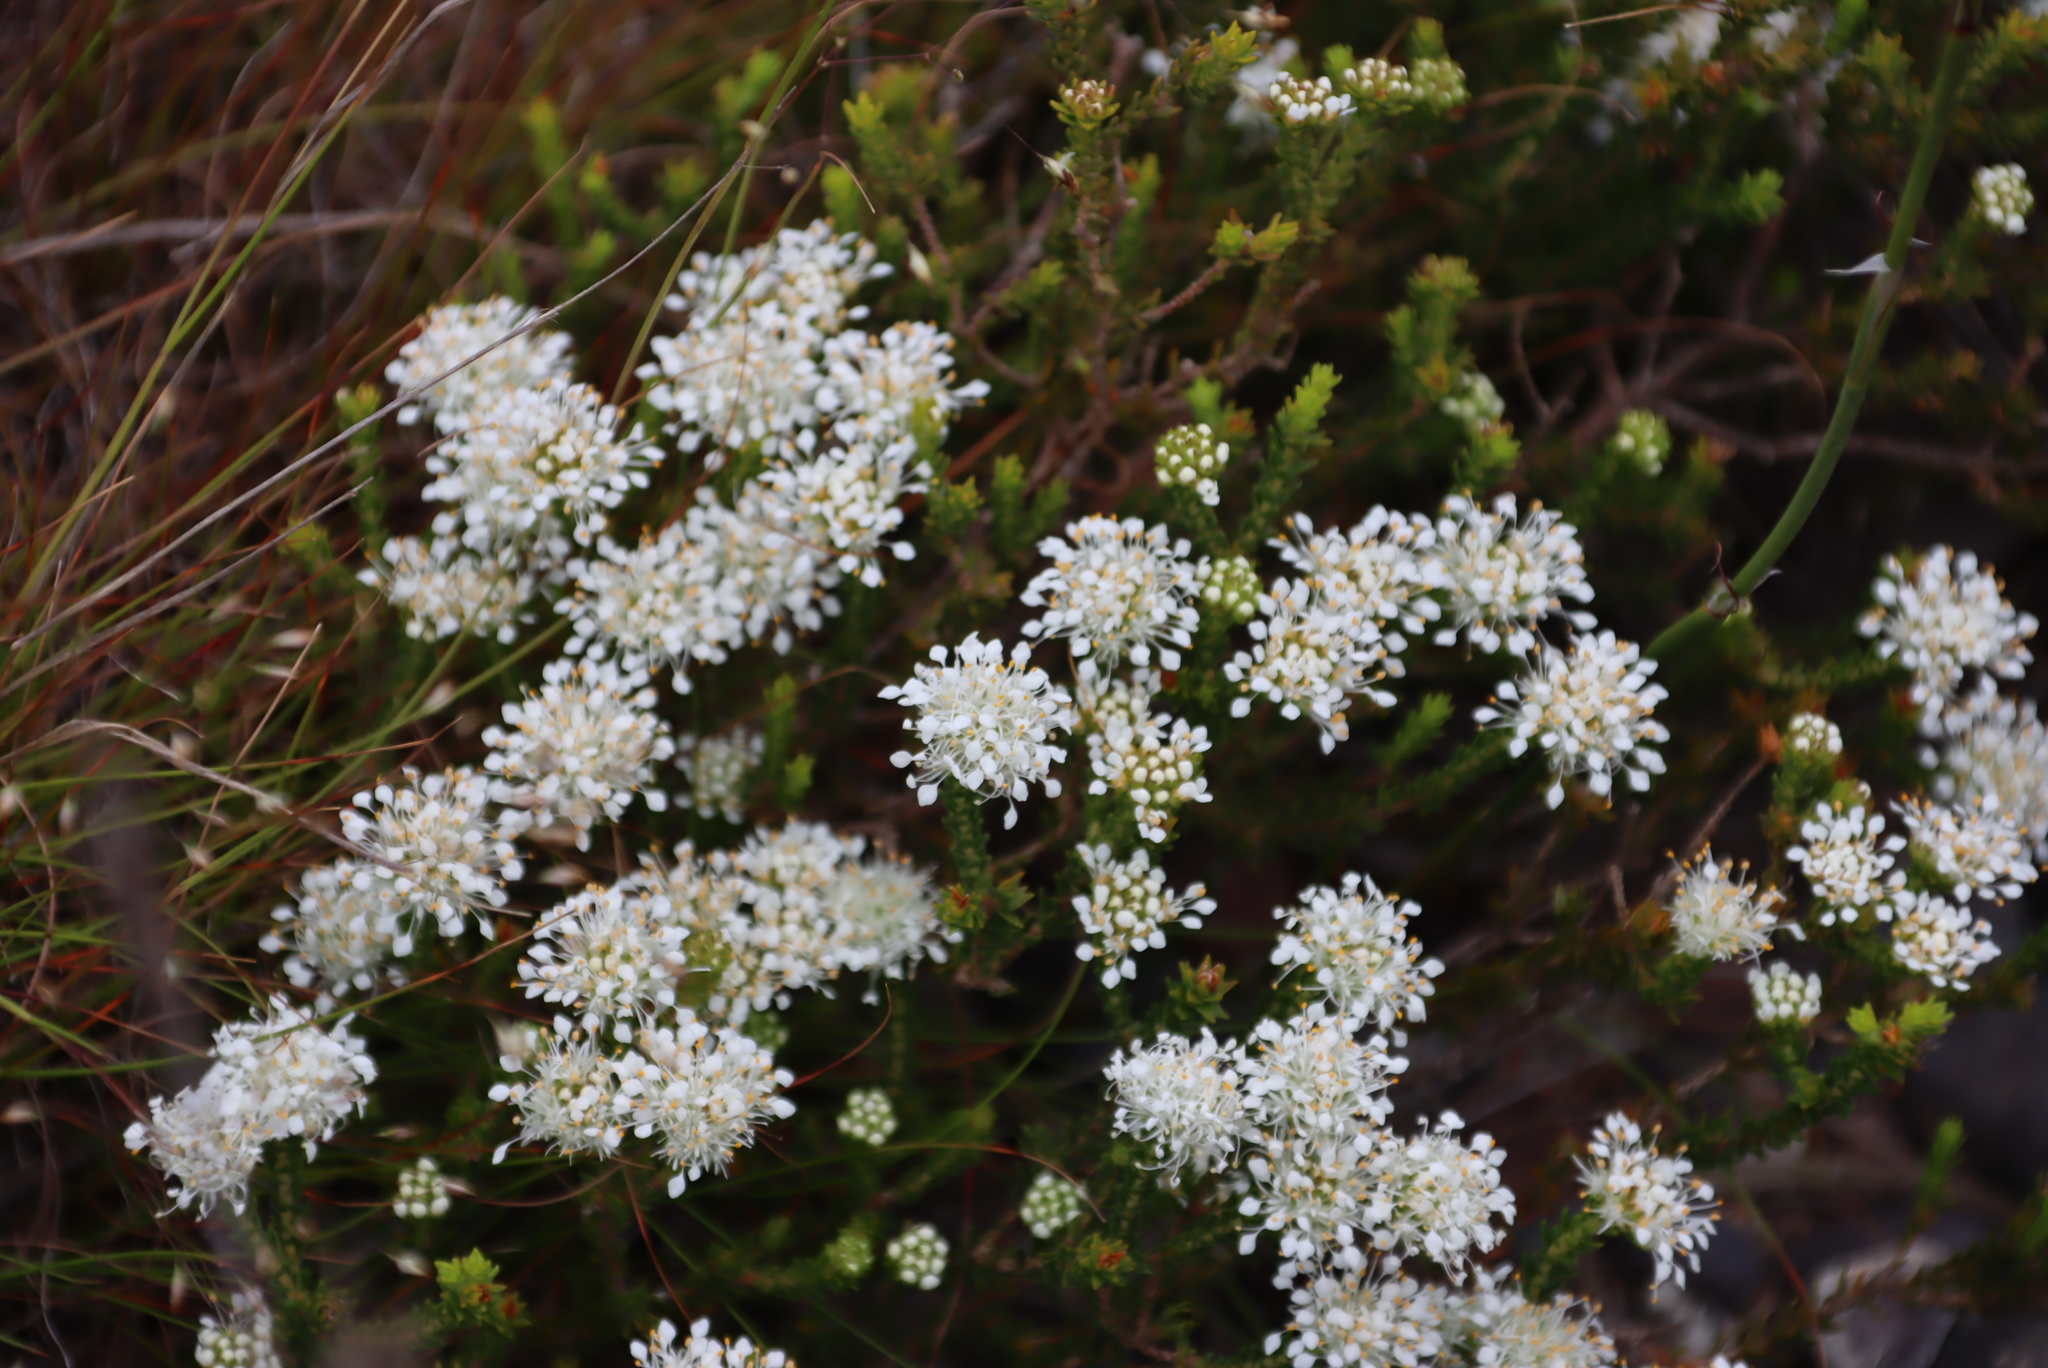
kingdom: Plantae
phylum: Tracheophyta
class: Magnoliopsida
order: Sapindales
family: Rutaceae
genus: Agathosma
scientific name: Agathosma imbricata
